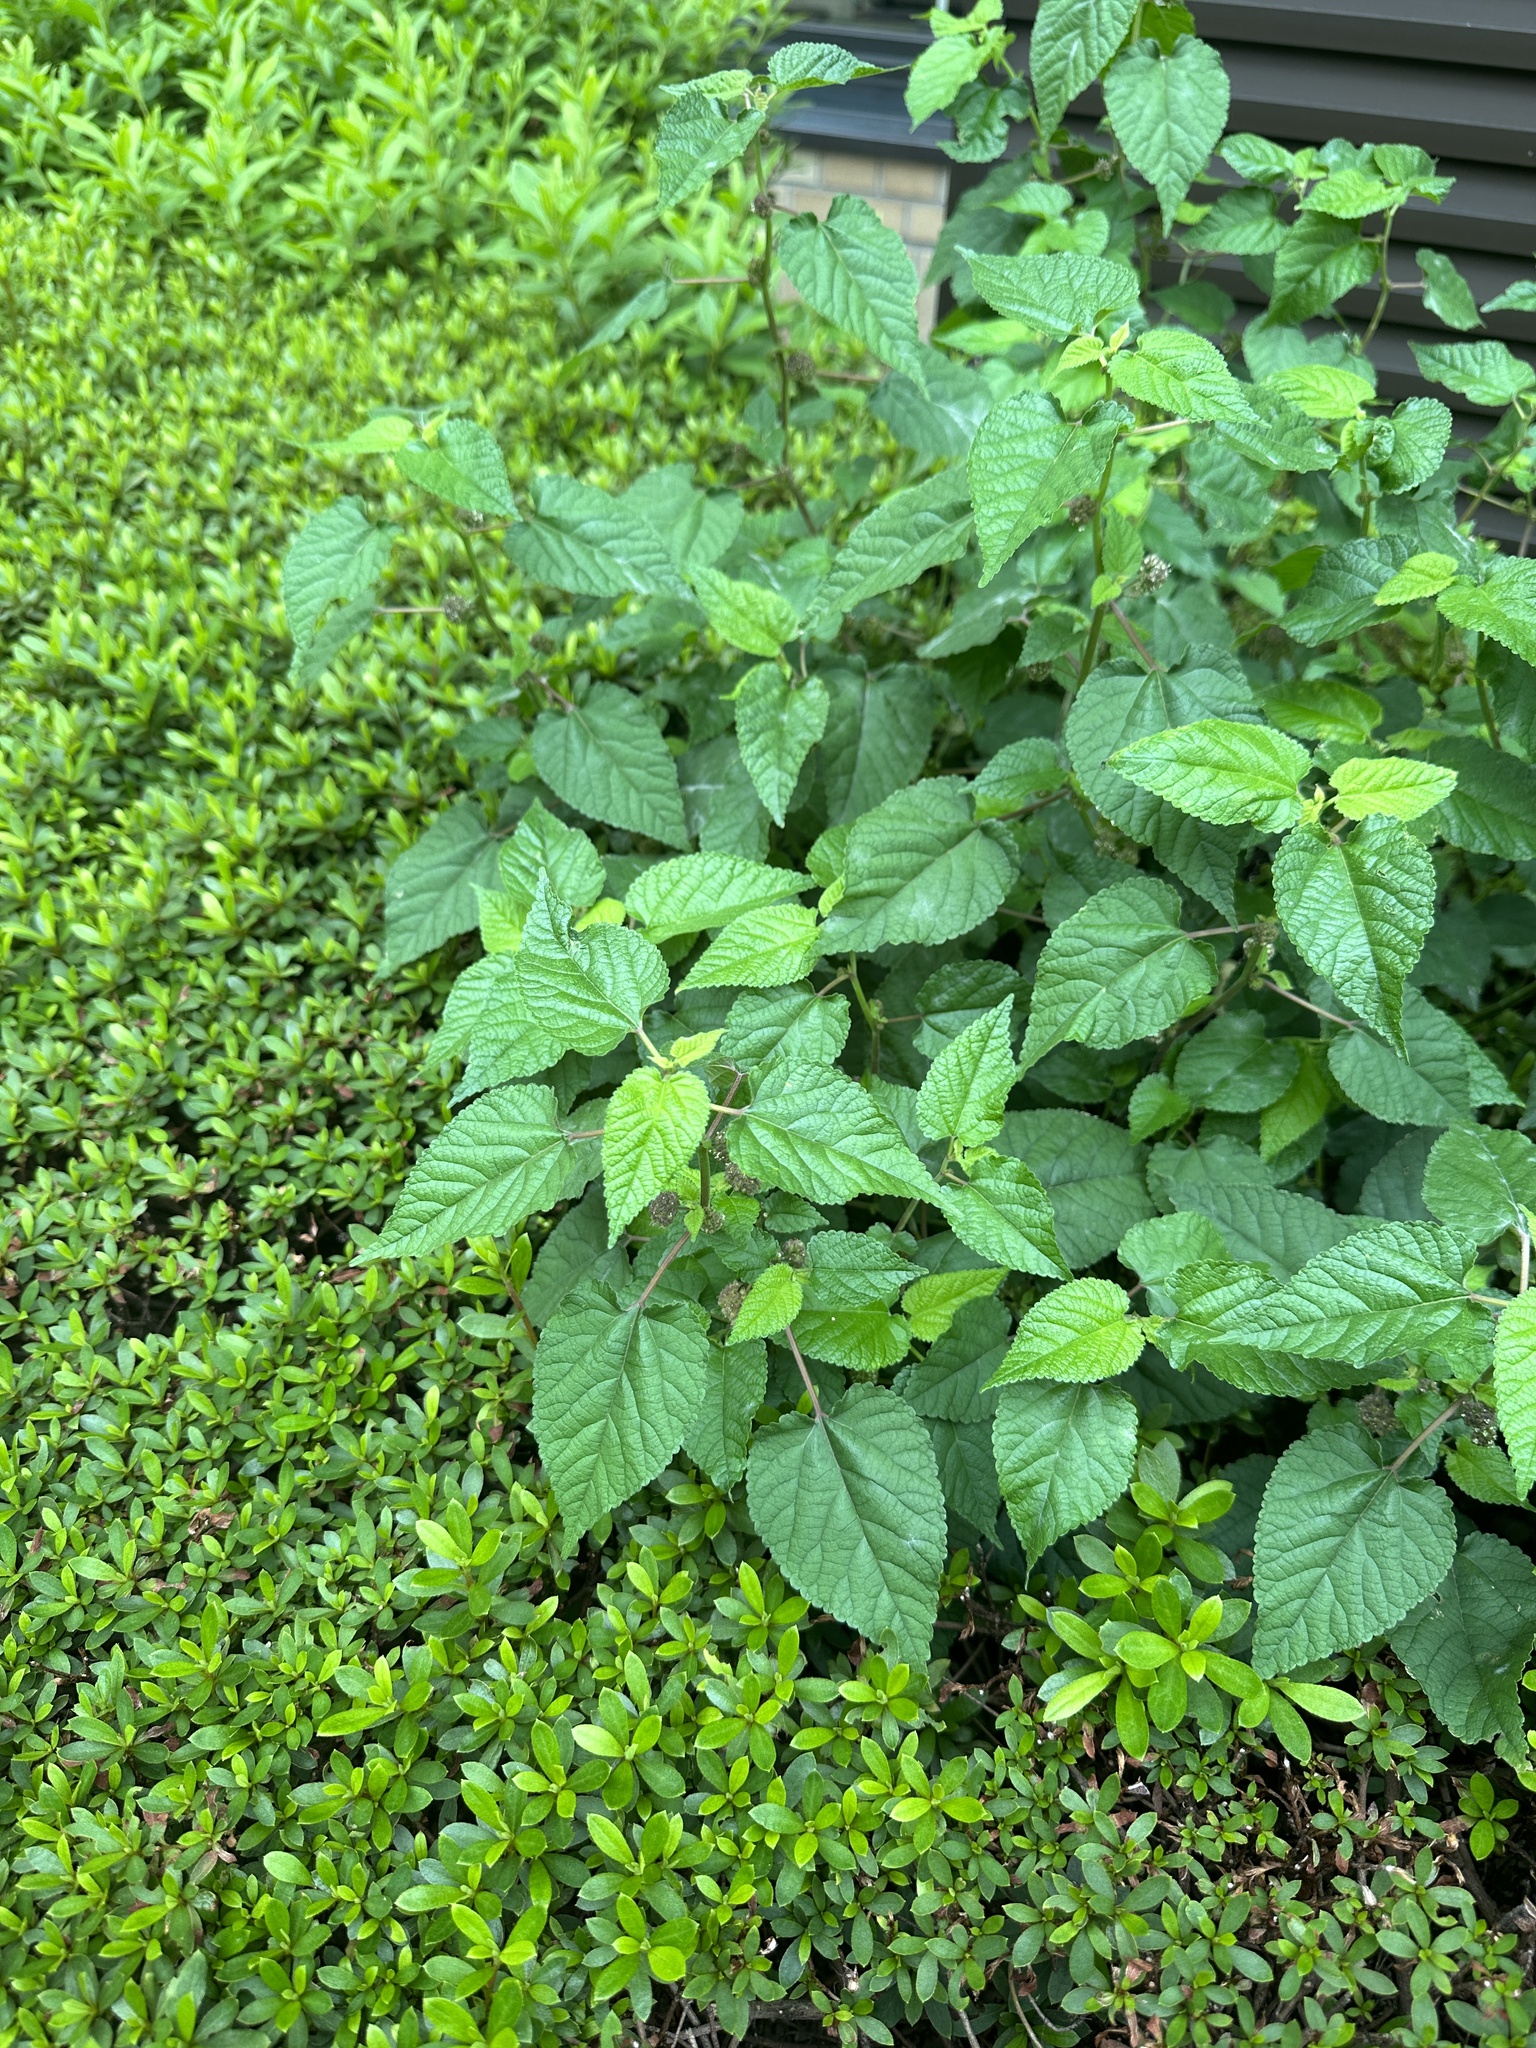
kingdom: Plantae
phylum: Tracheophyta
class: Magnoliopsida
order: Rosales
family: Moraceae
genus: Fatoua
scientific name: Fatoua villosa
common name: Hairy crabweed
